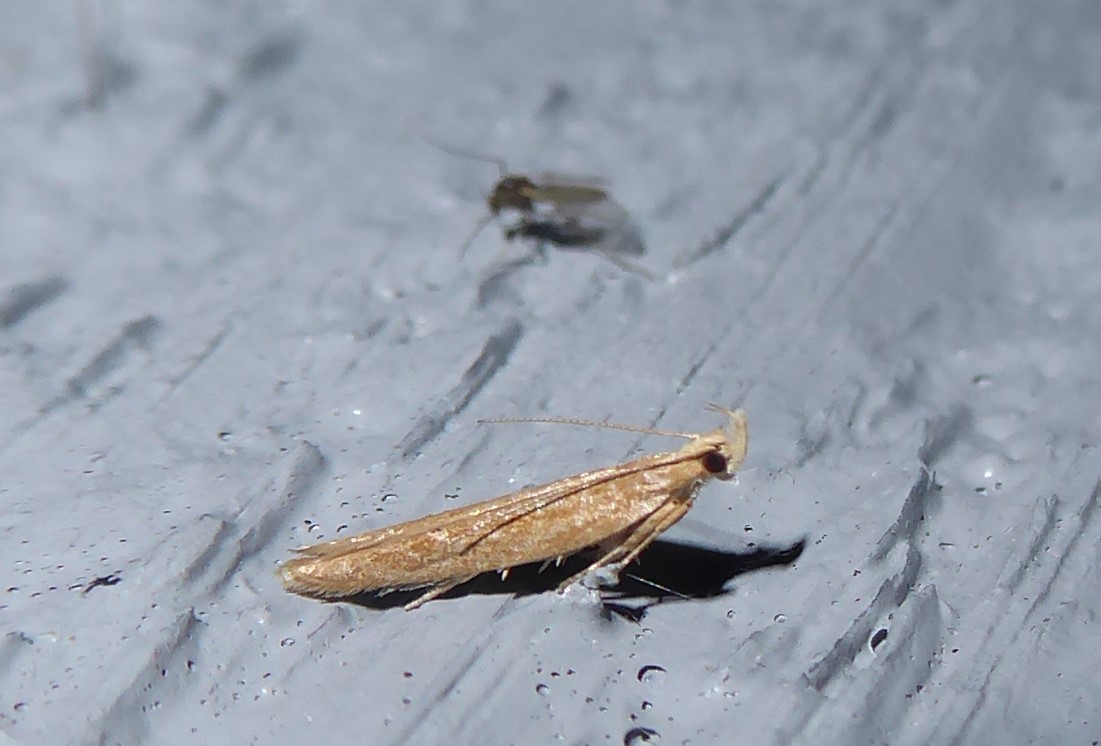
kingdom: Animalia
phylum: Arthropoda
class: Insecta
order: Lepidoptera
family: Depressariidae
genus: Eutorna
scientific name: Eutorna inornata
